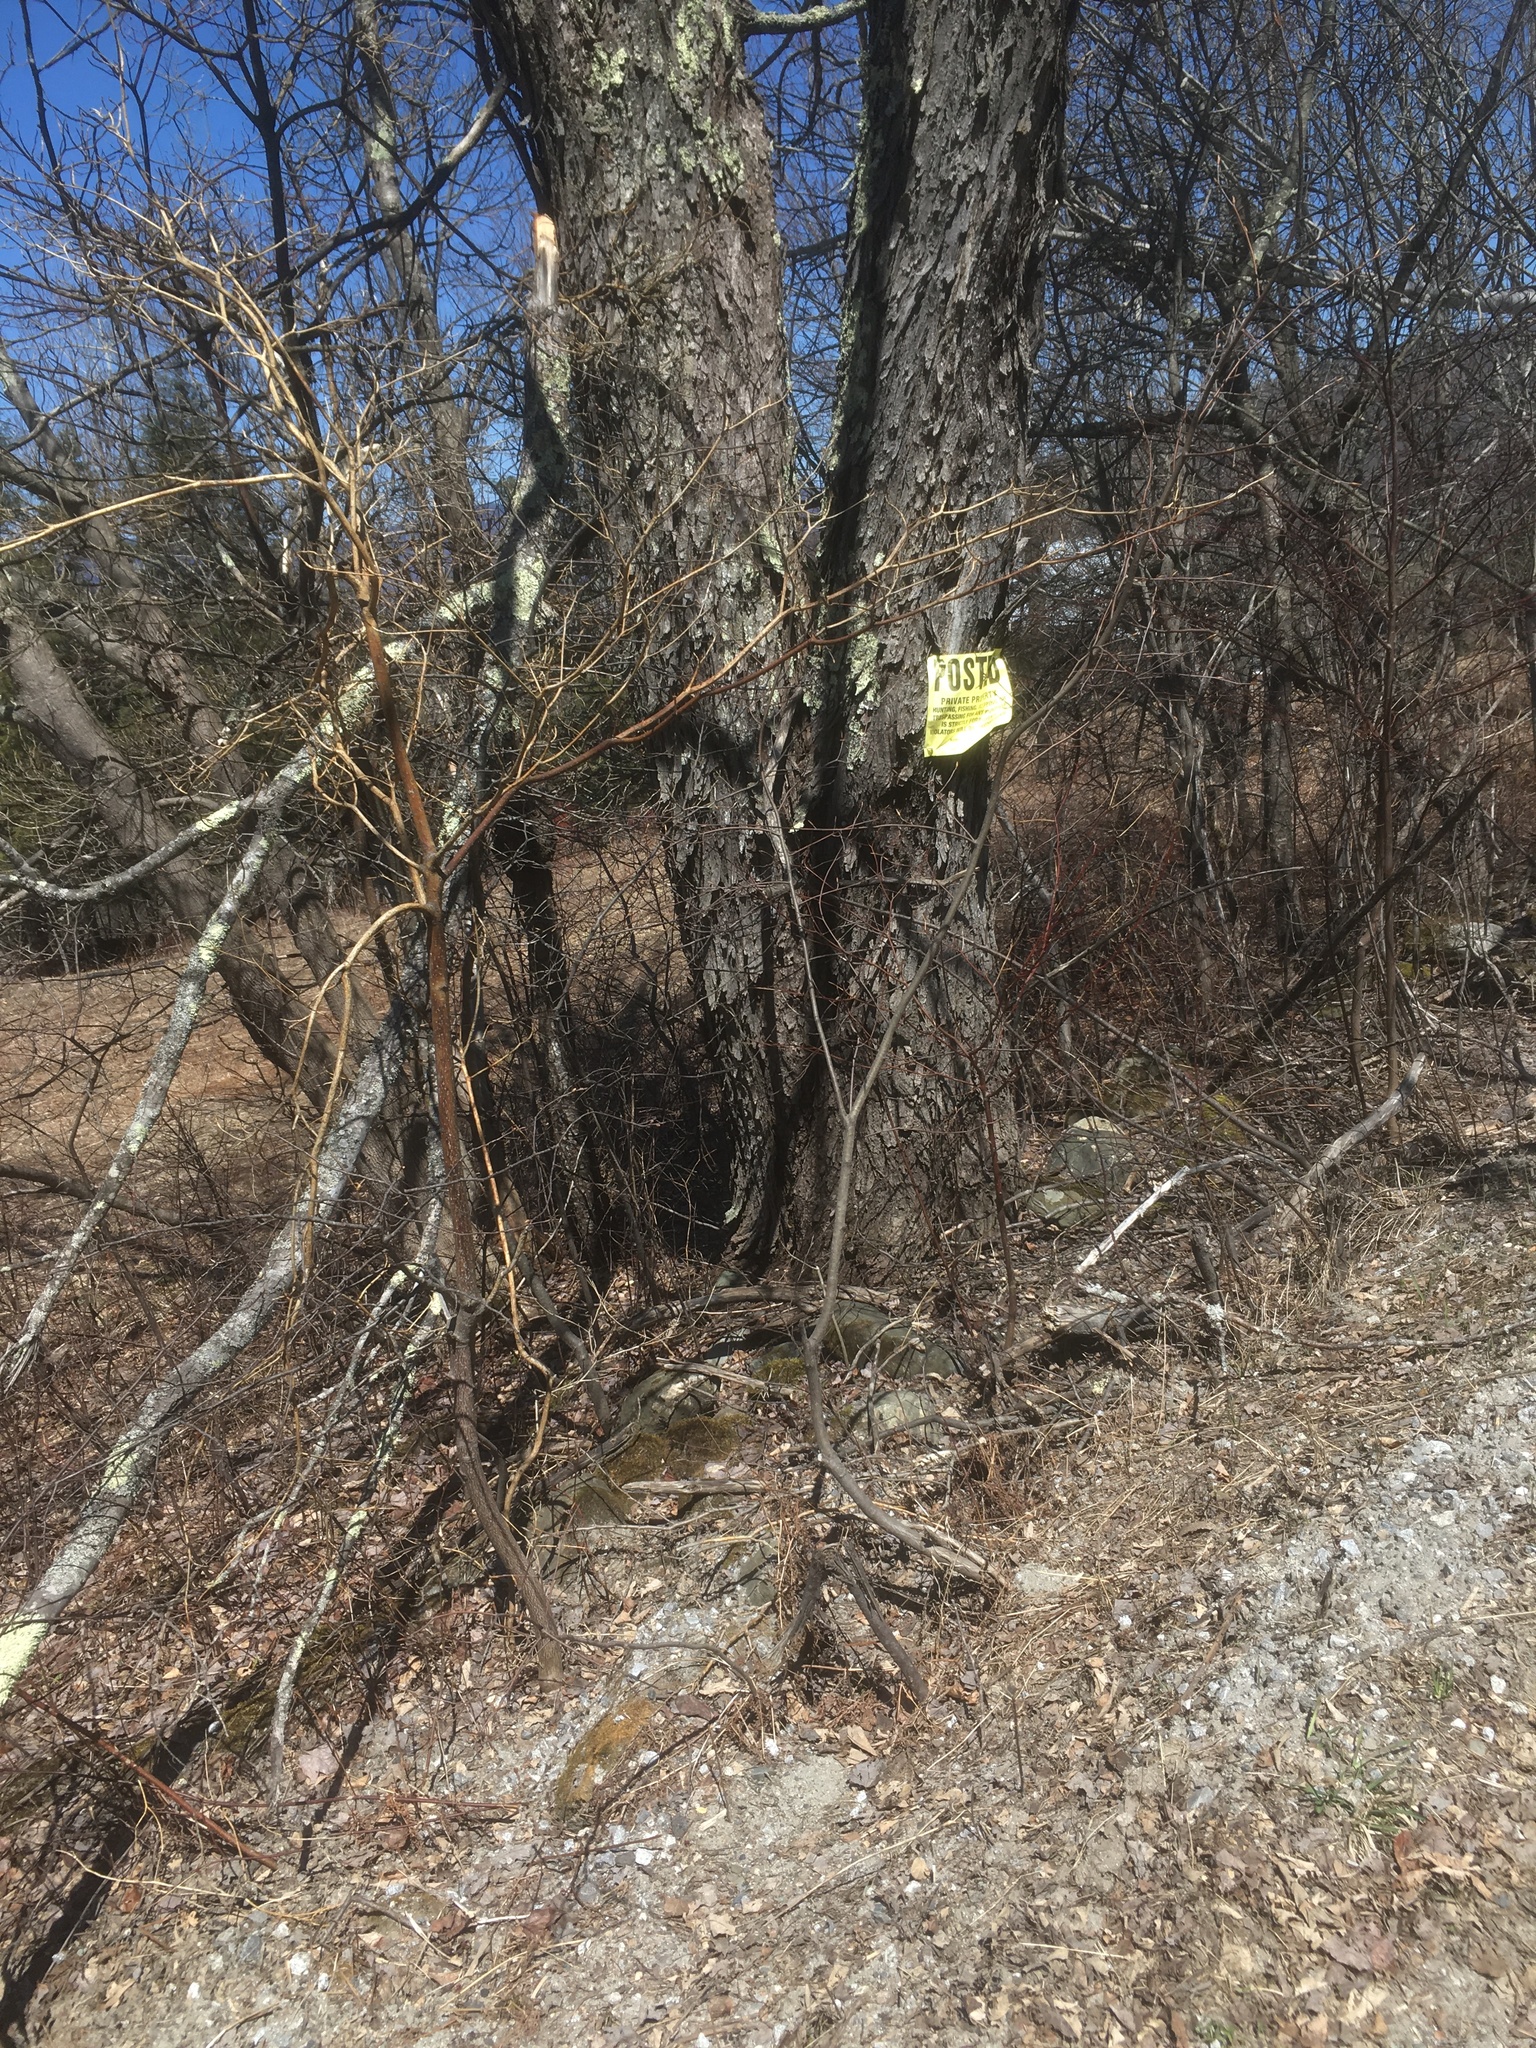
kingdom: Plantae
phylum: Tracheophyta
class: Magnoliopsida
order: Cornales
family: Cornaceae
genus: Cornus
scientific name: Cornus alternifolia
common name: Pagoda dogwood
